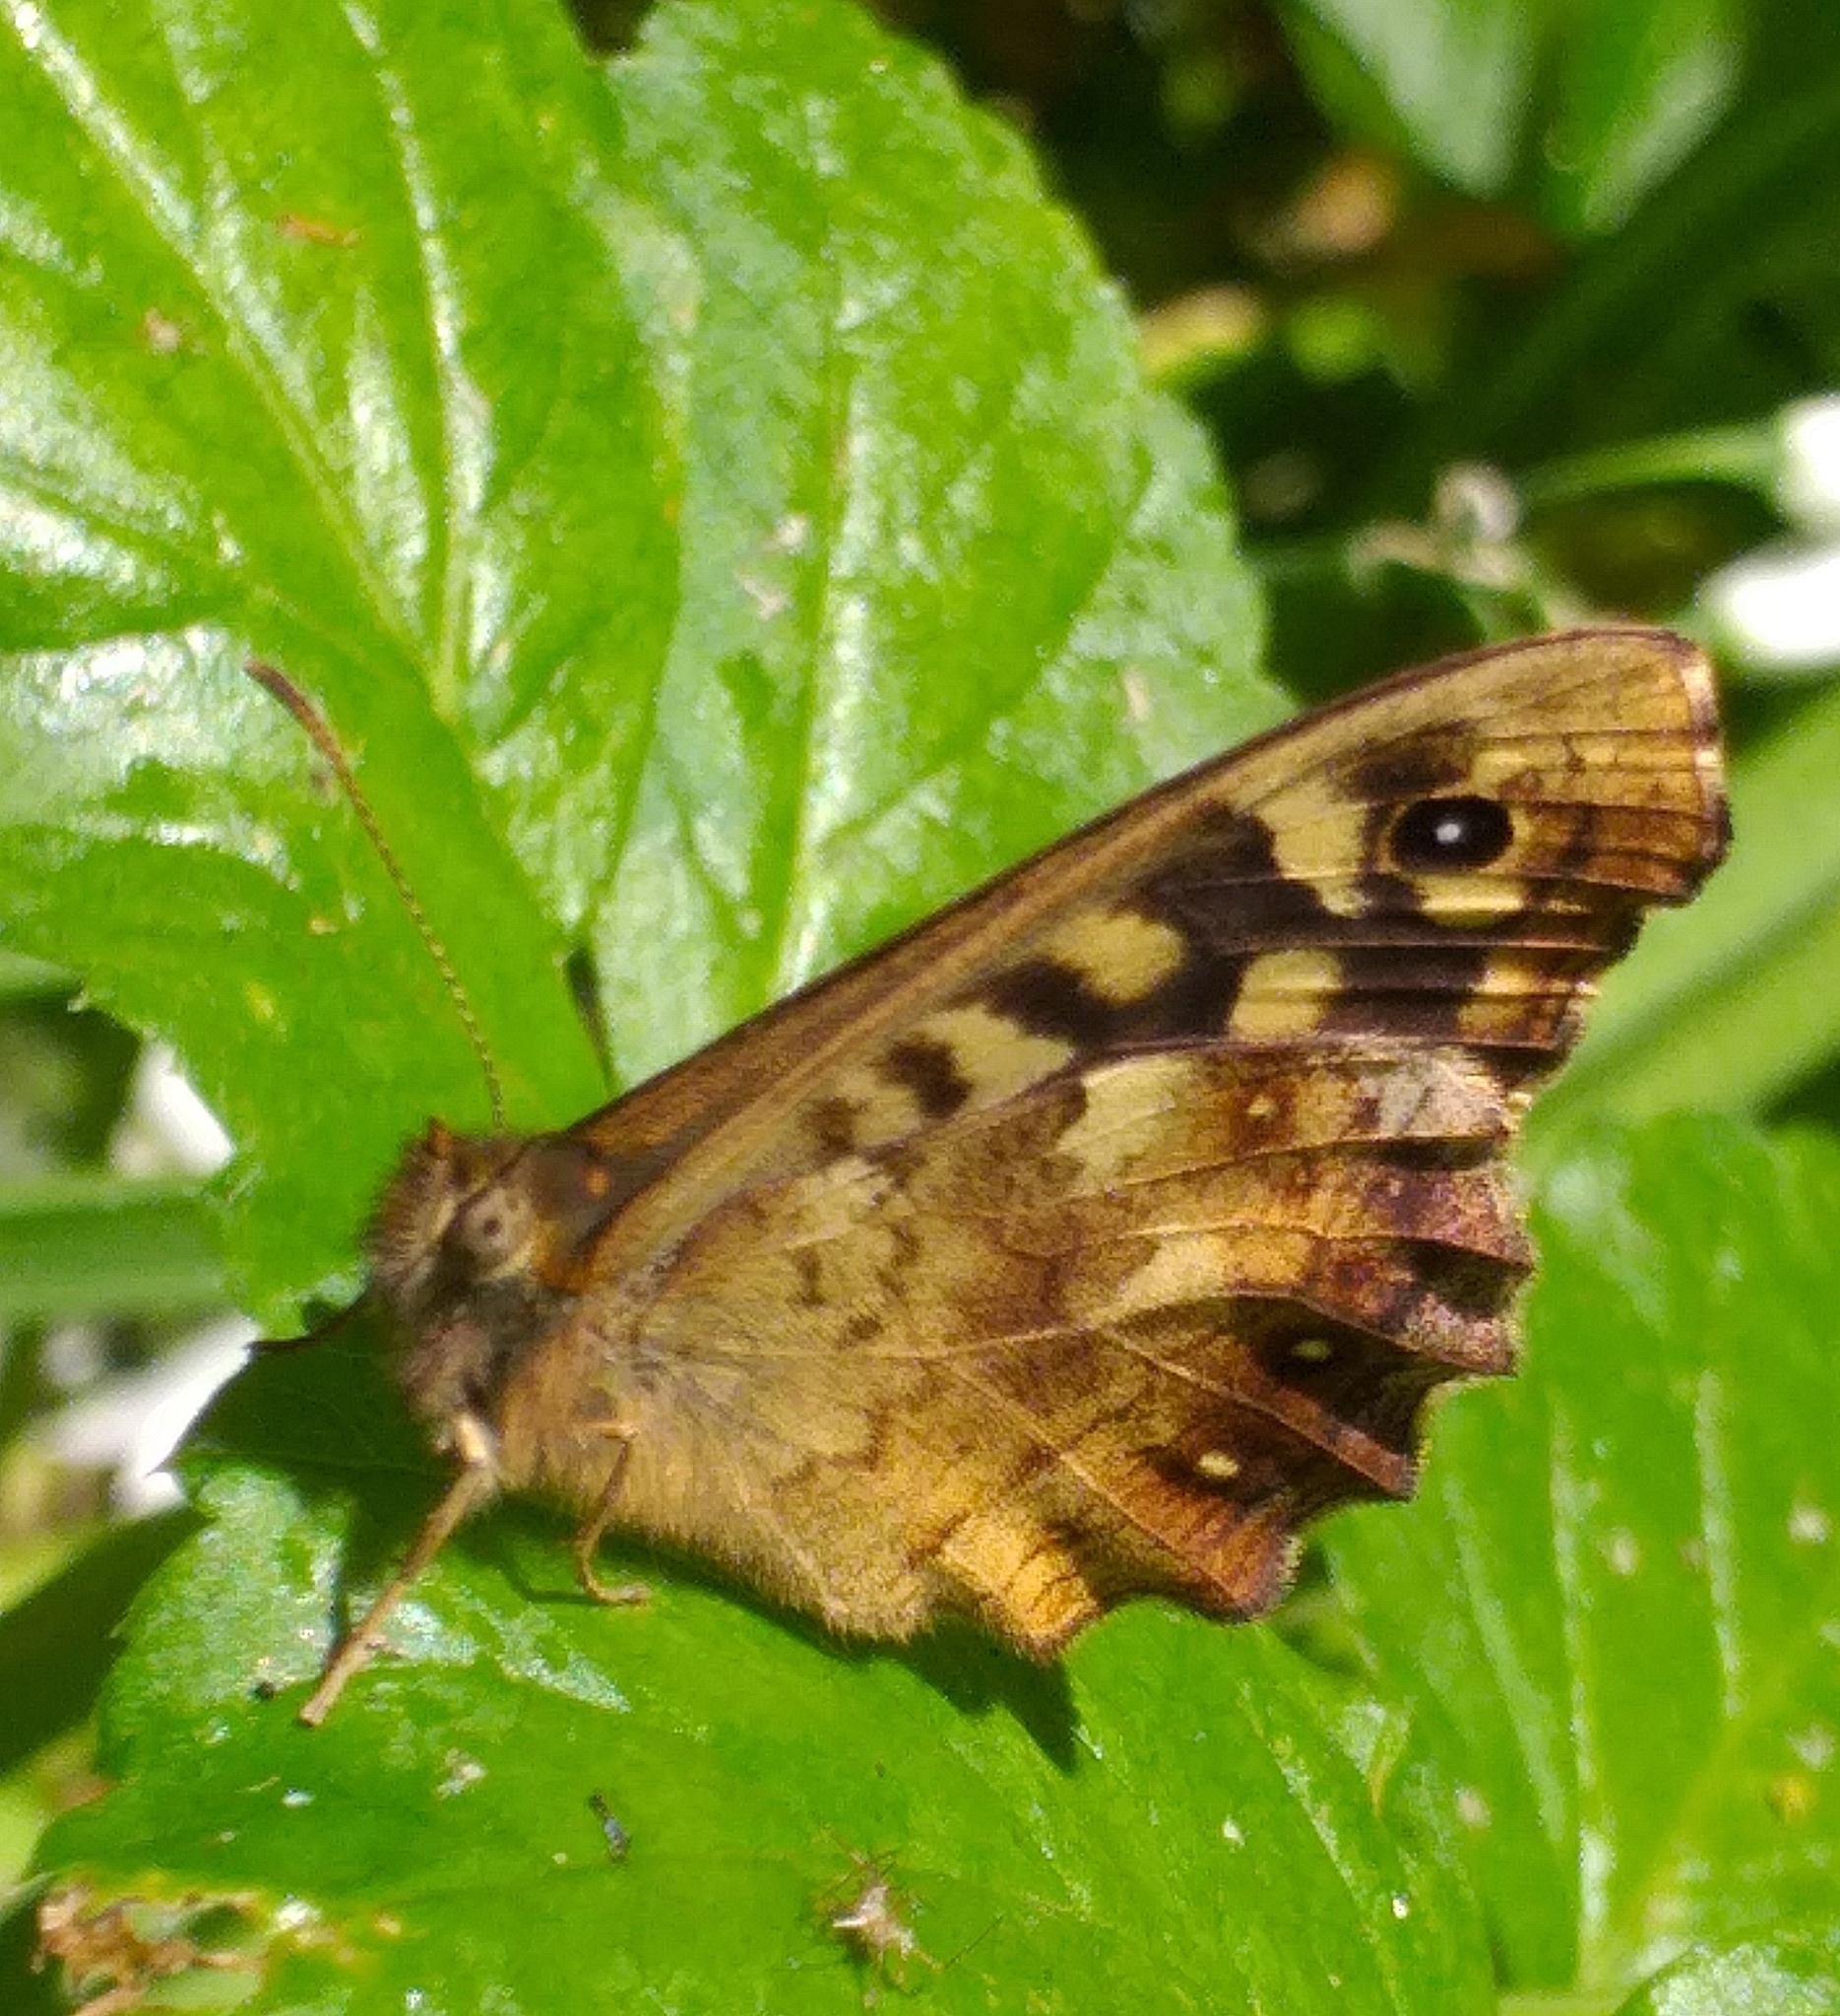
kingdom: Animalia
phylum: Arthropoda
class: Insecta
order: Lepidoptera
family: Nymphalidae
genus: Pararge
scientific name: Pararge aegeria
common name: Speckled wood
